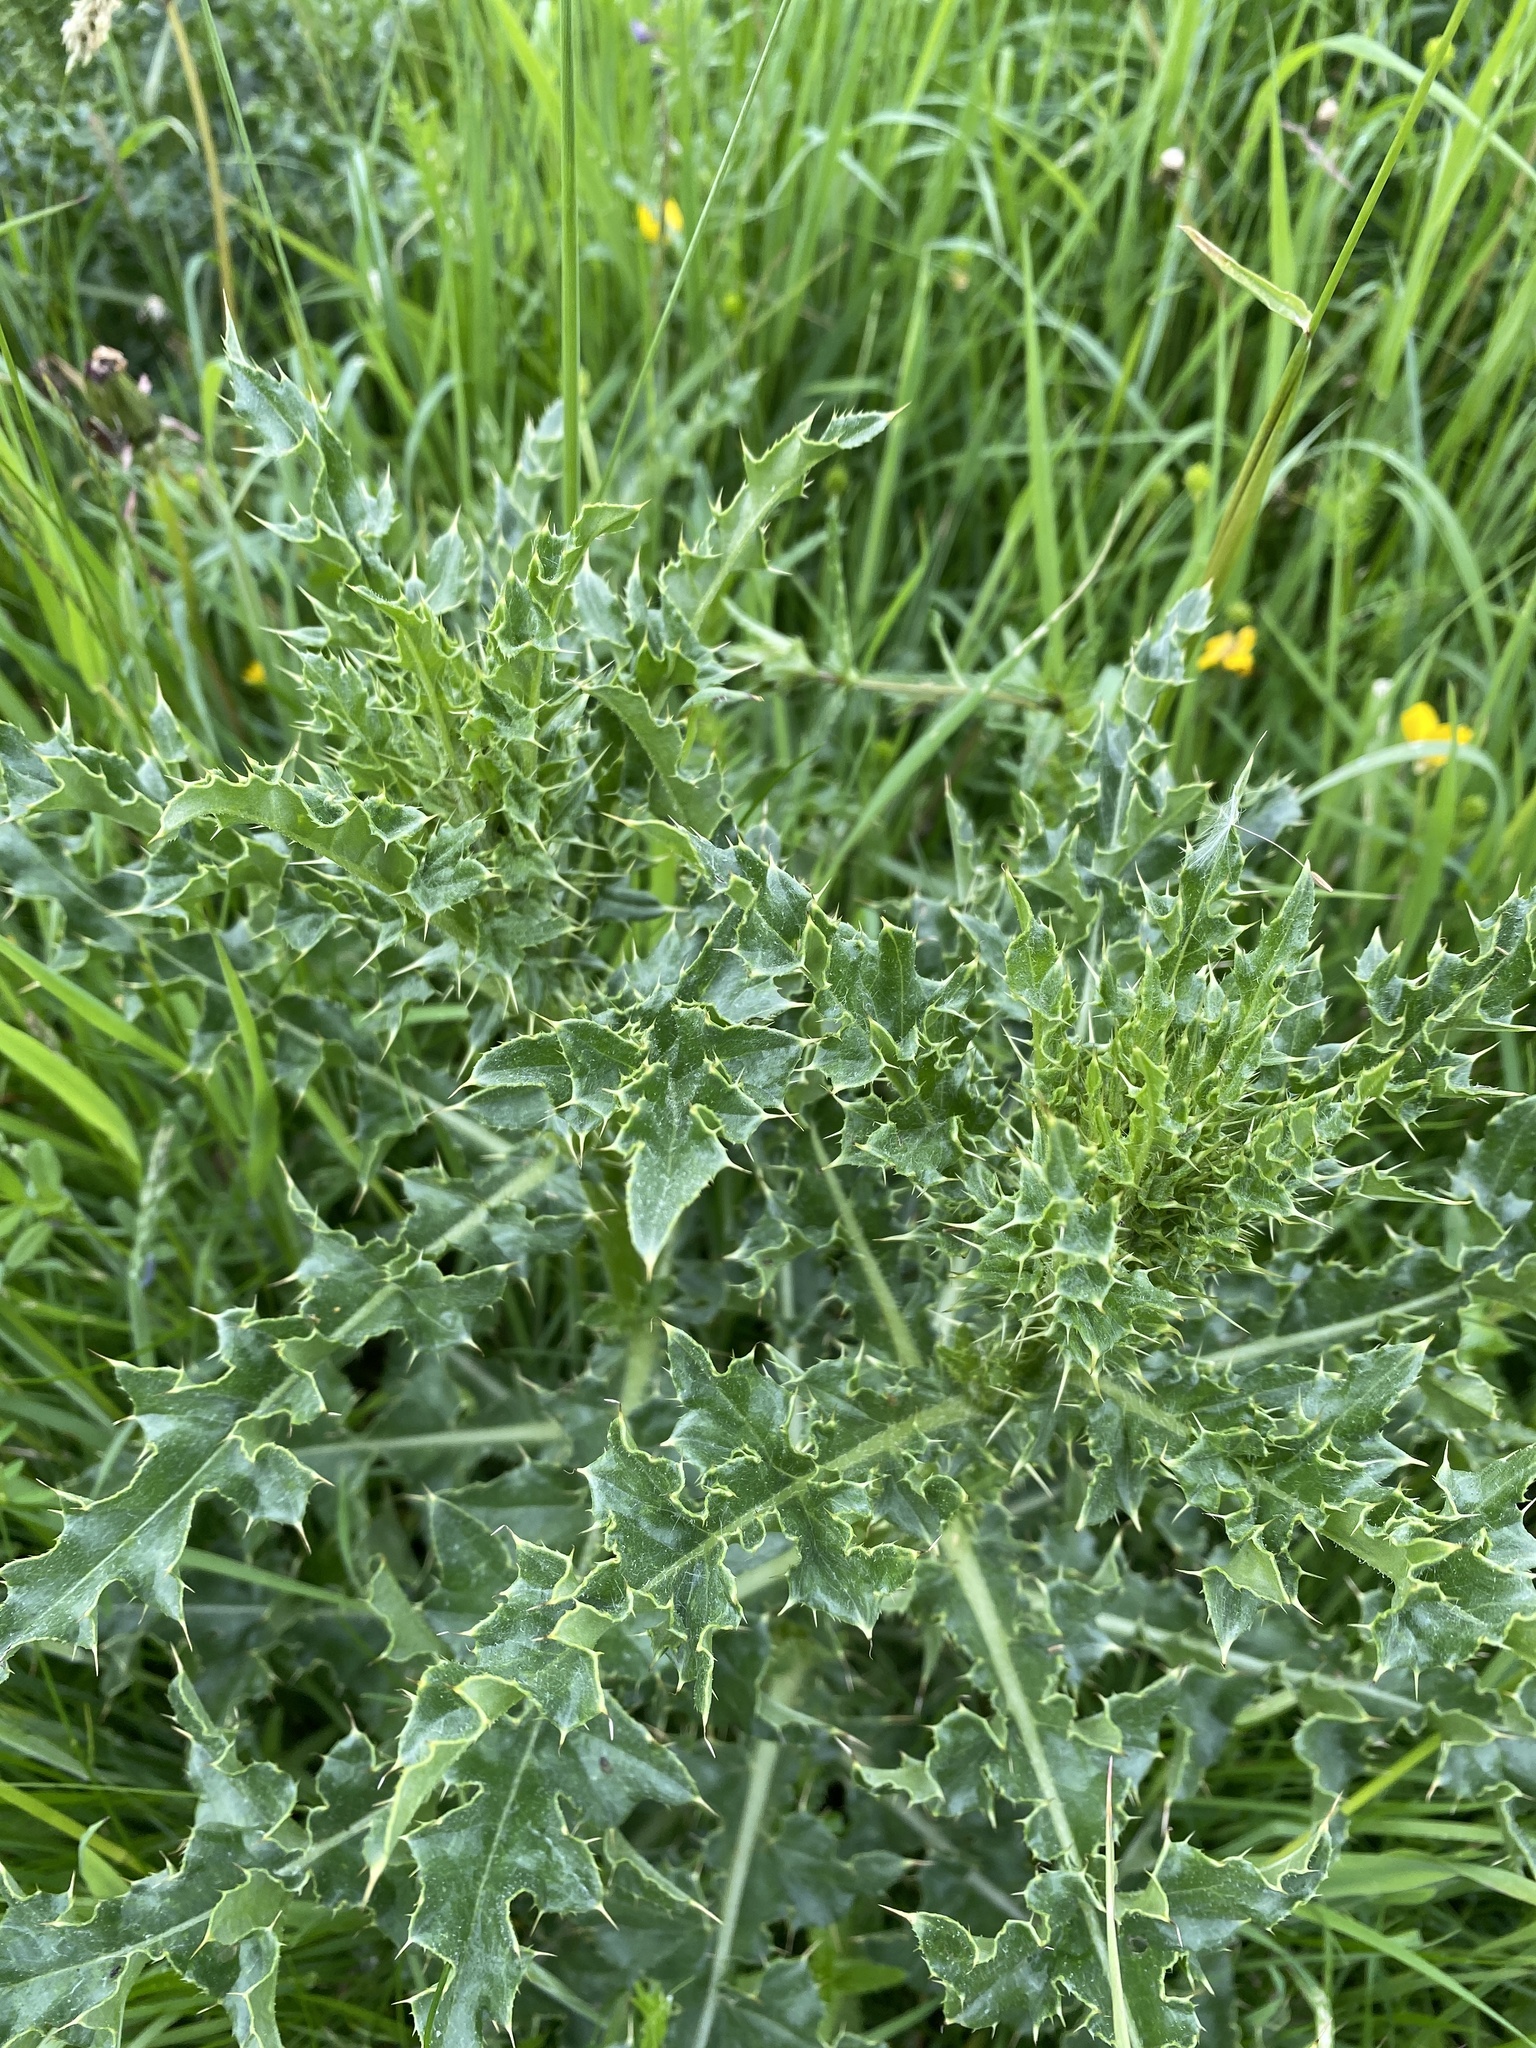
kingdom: Plantae
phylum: Tracheophyta
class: Magnoliopsida
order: Asterales
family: Asteraceae
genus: Cirsium
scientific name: Cirsium arvense
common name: Creeping thistle
